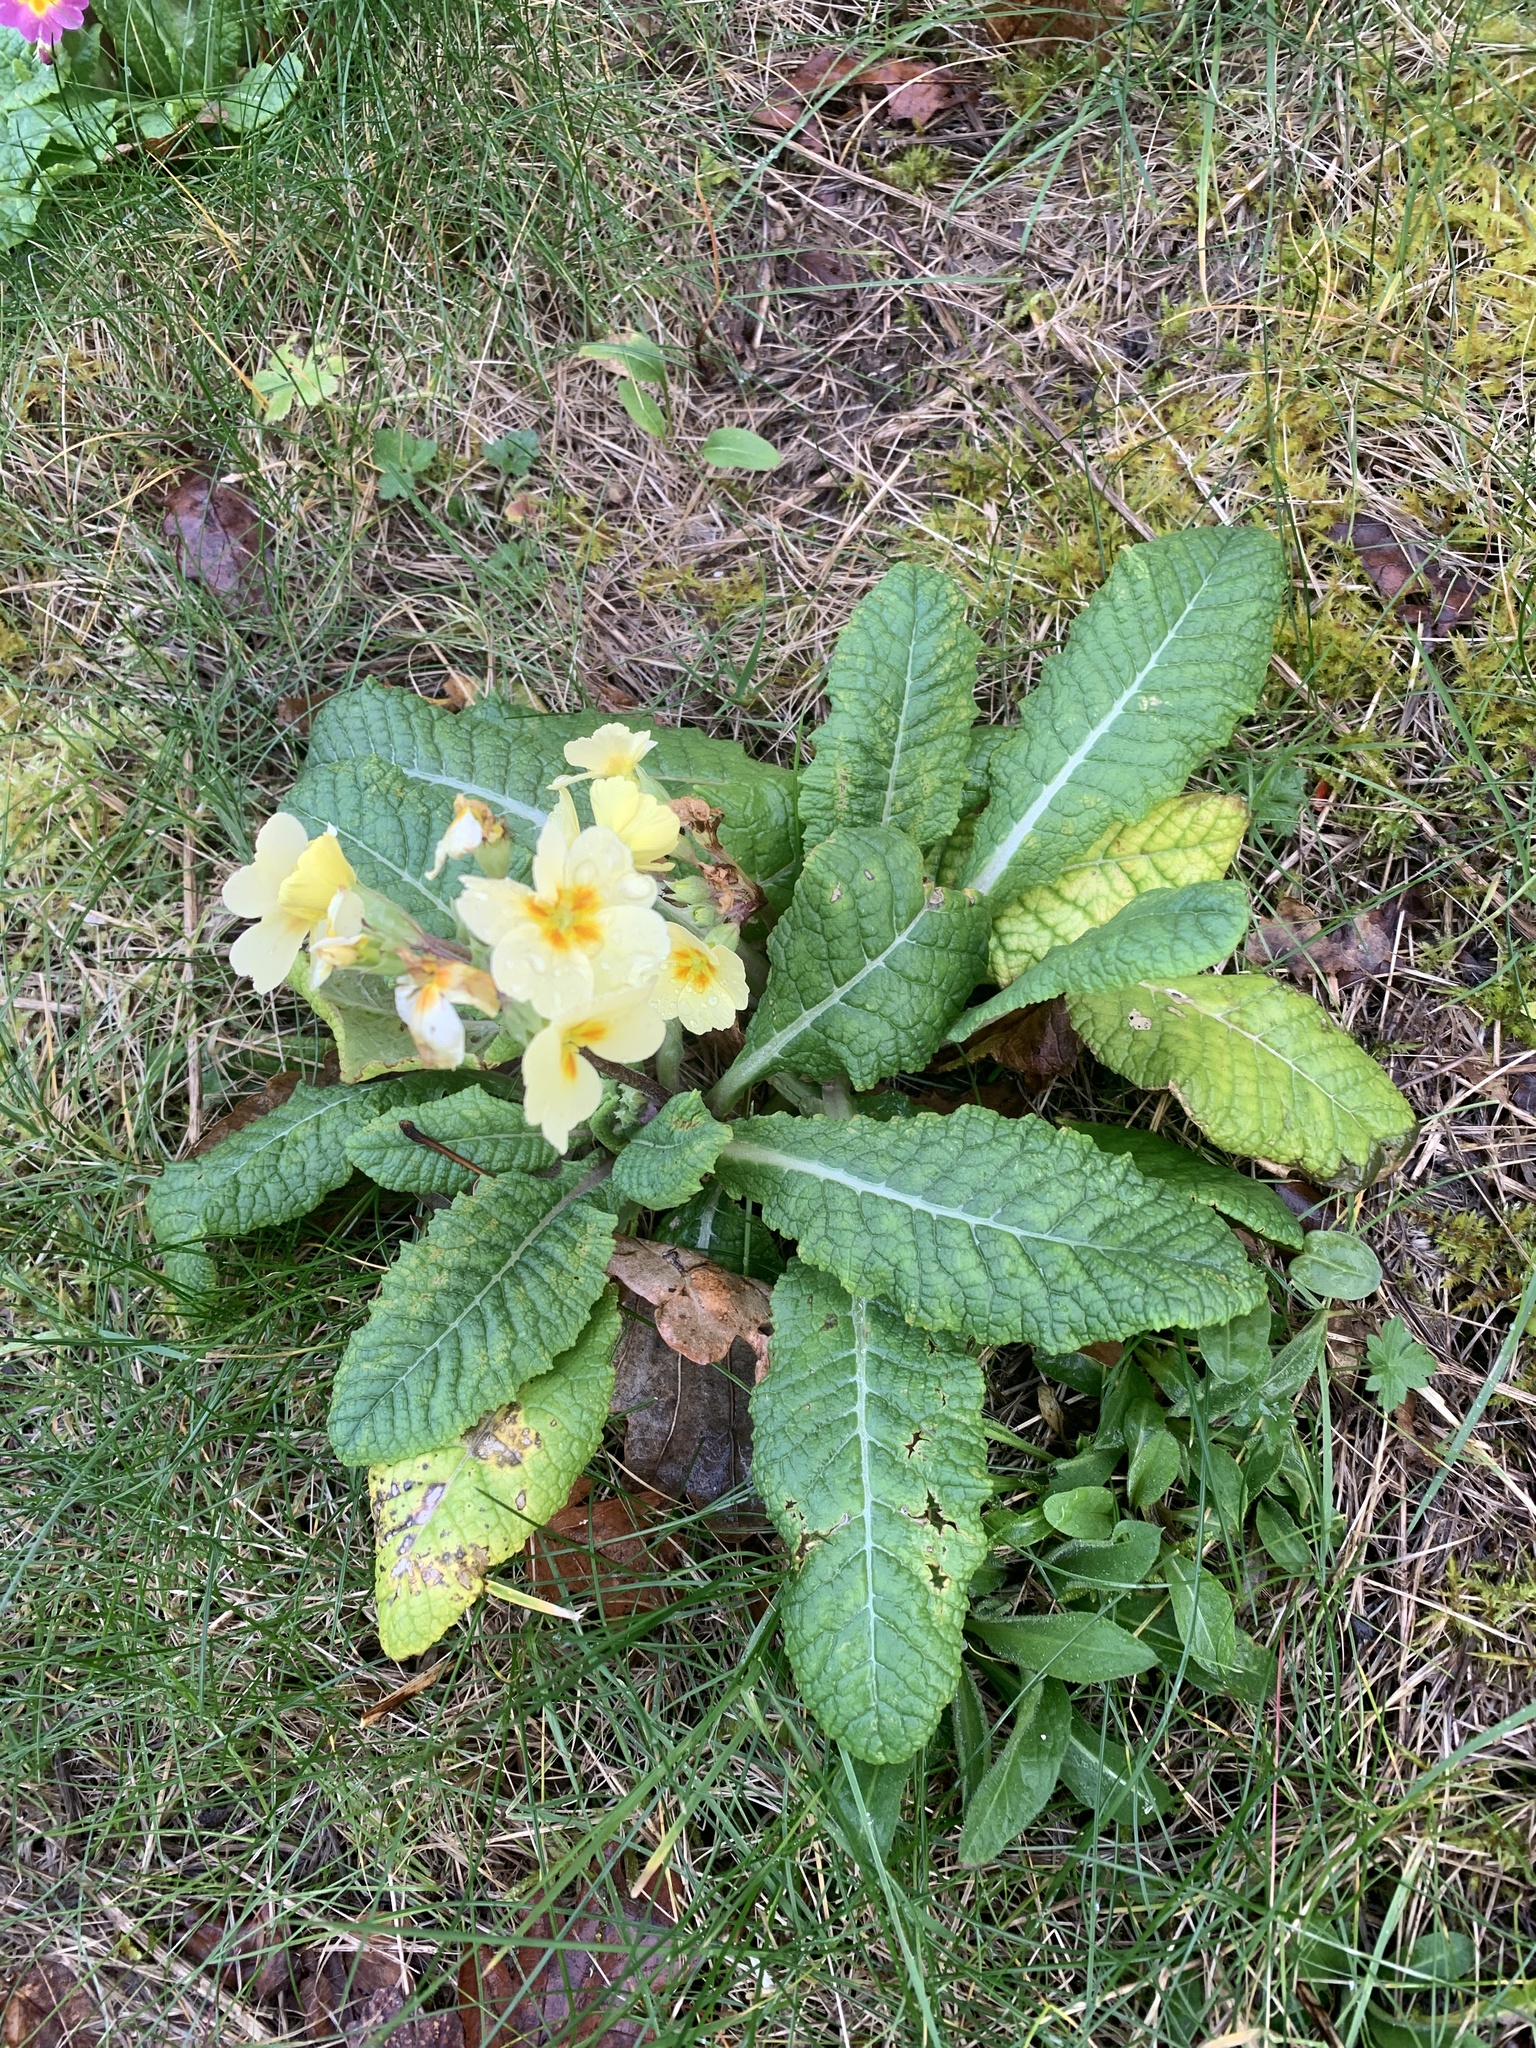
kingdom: Plantae
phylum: Tracheophyta
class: Magnoliopsida
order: Ericales
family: Primulaceae
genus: Primula
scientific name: Primula vulgaris
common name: Primrose
